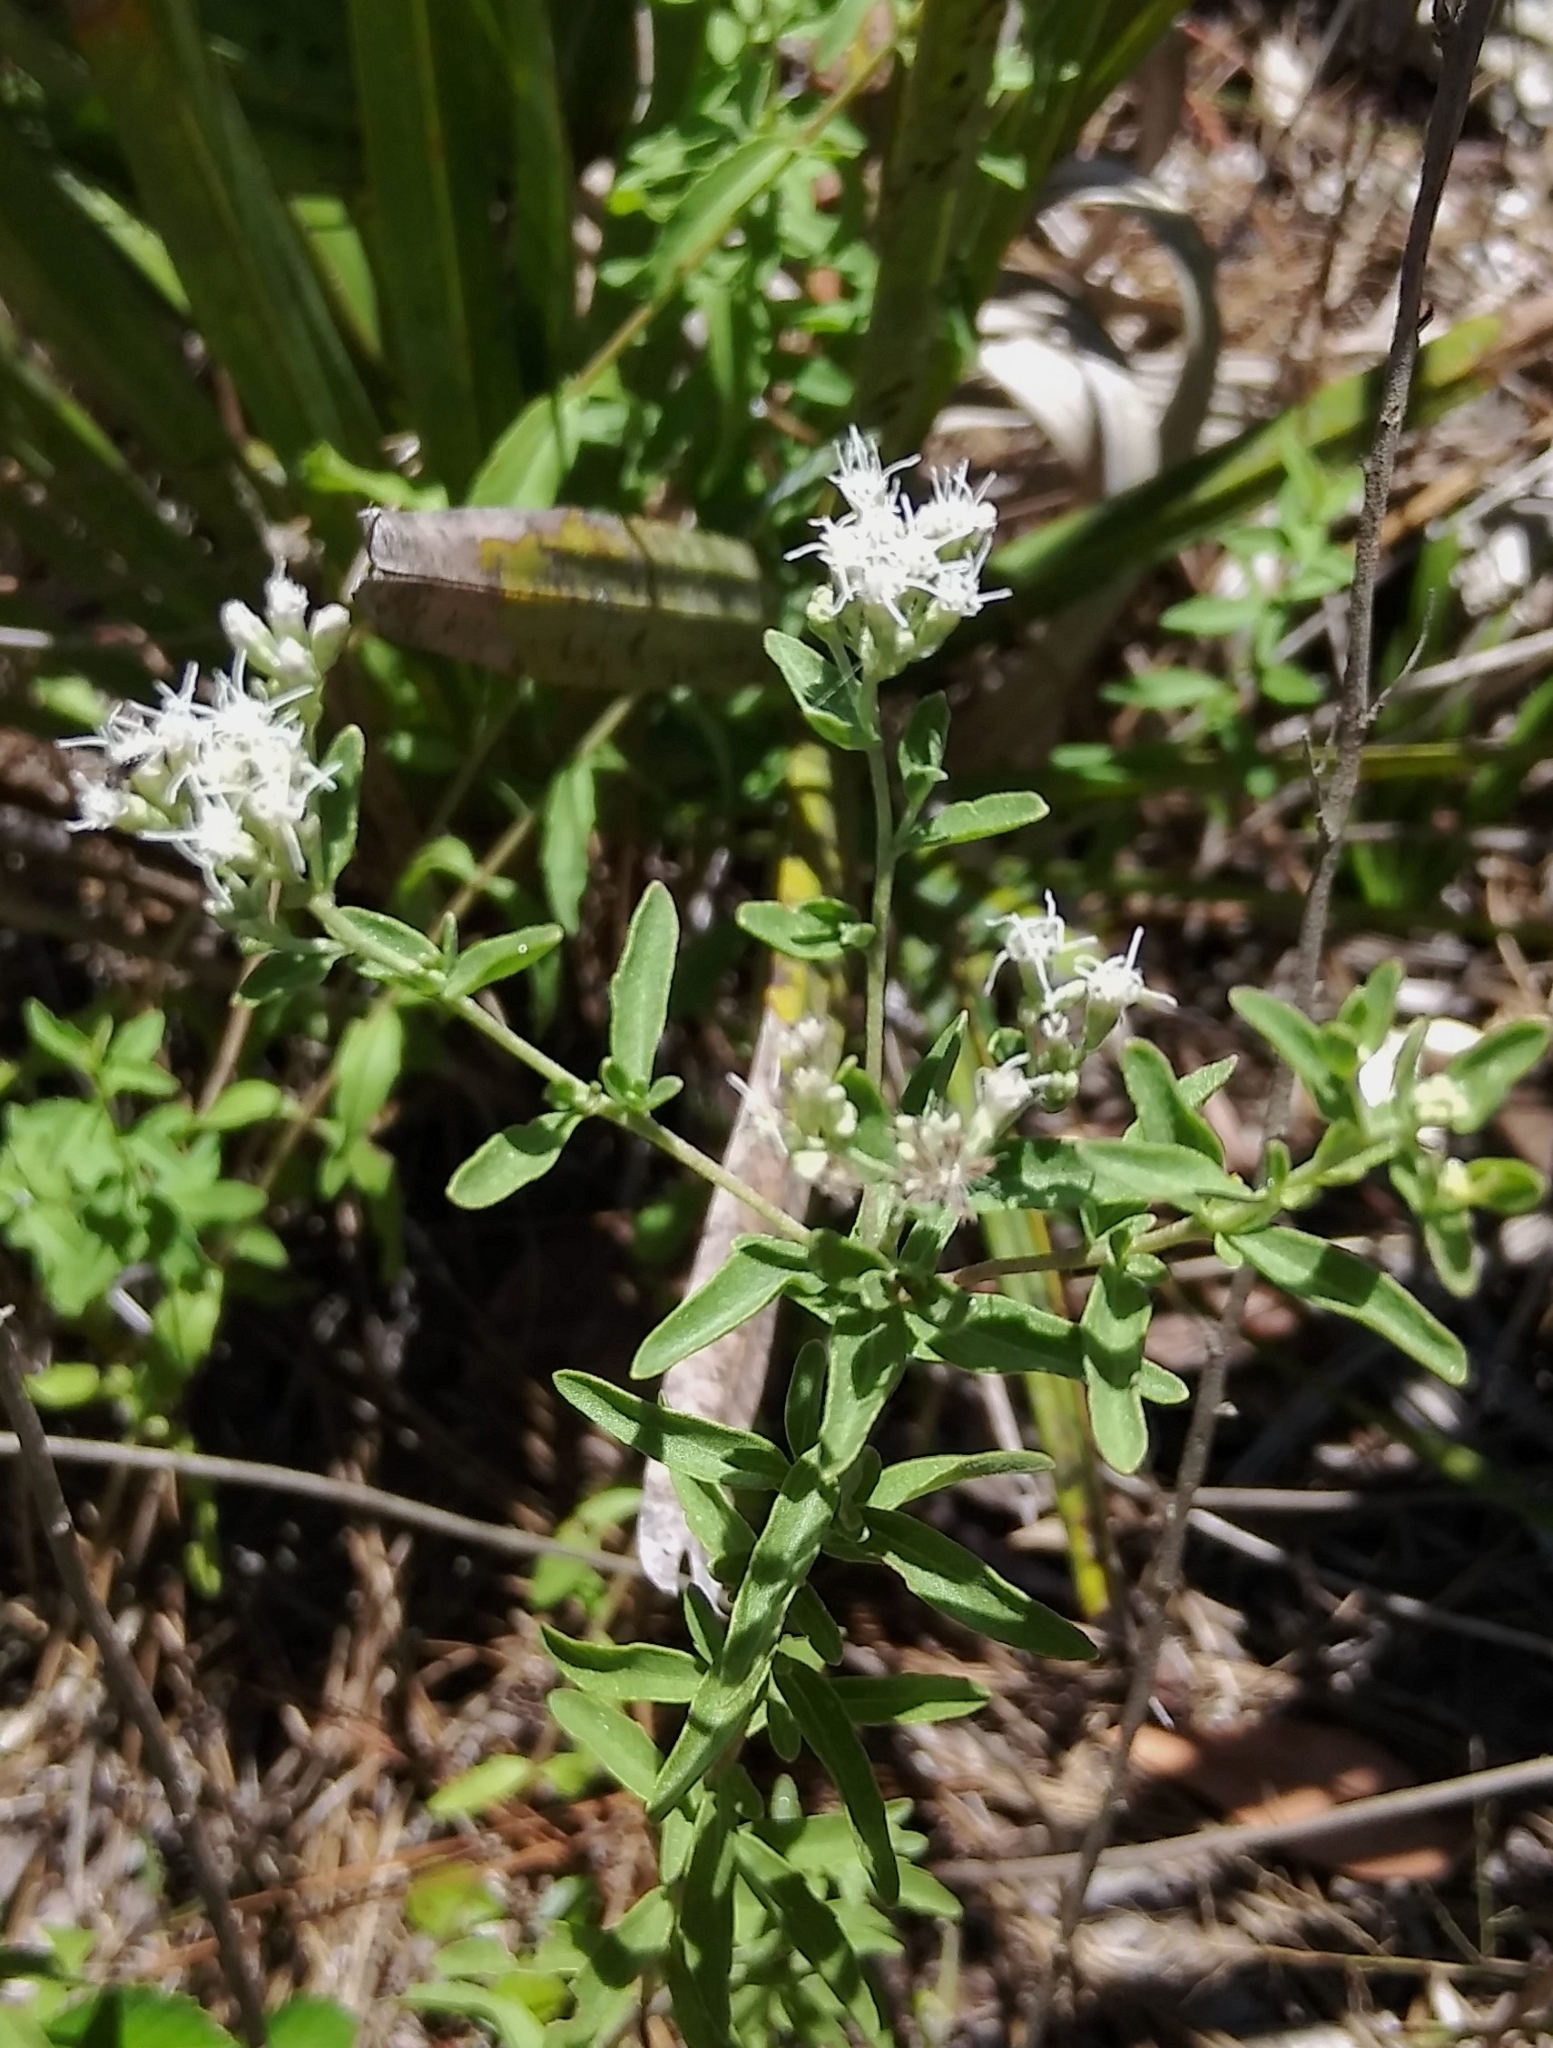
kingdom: Plantae
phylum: Tracheophyta
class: Magnoliopsida
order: Asterales
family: Asteraceae
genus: Eupatorium
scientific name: Eupatorium mohrii
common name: Mohr's thoroughwort
